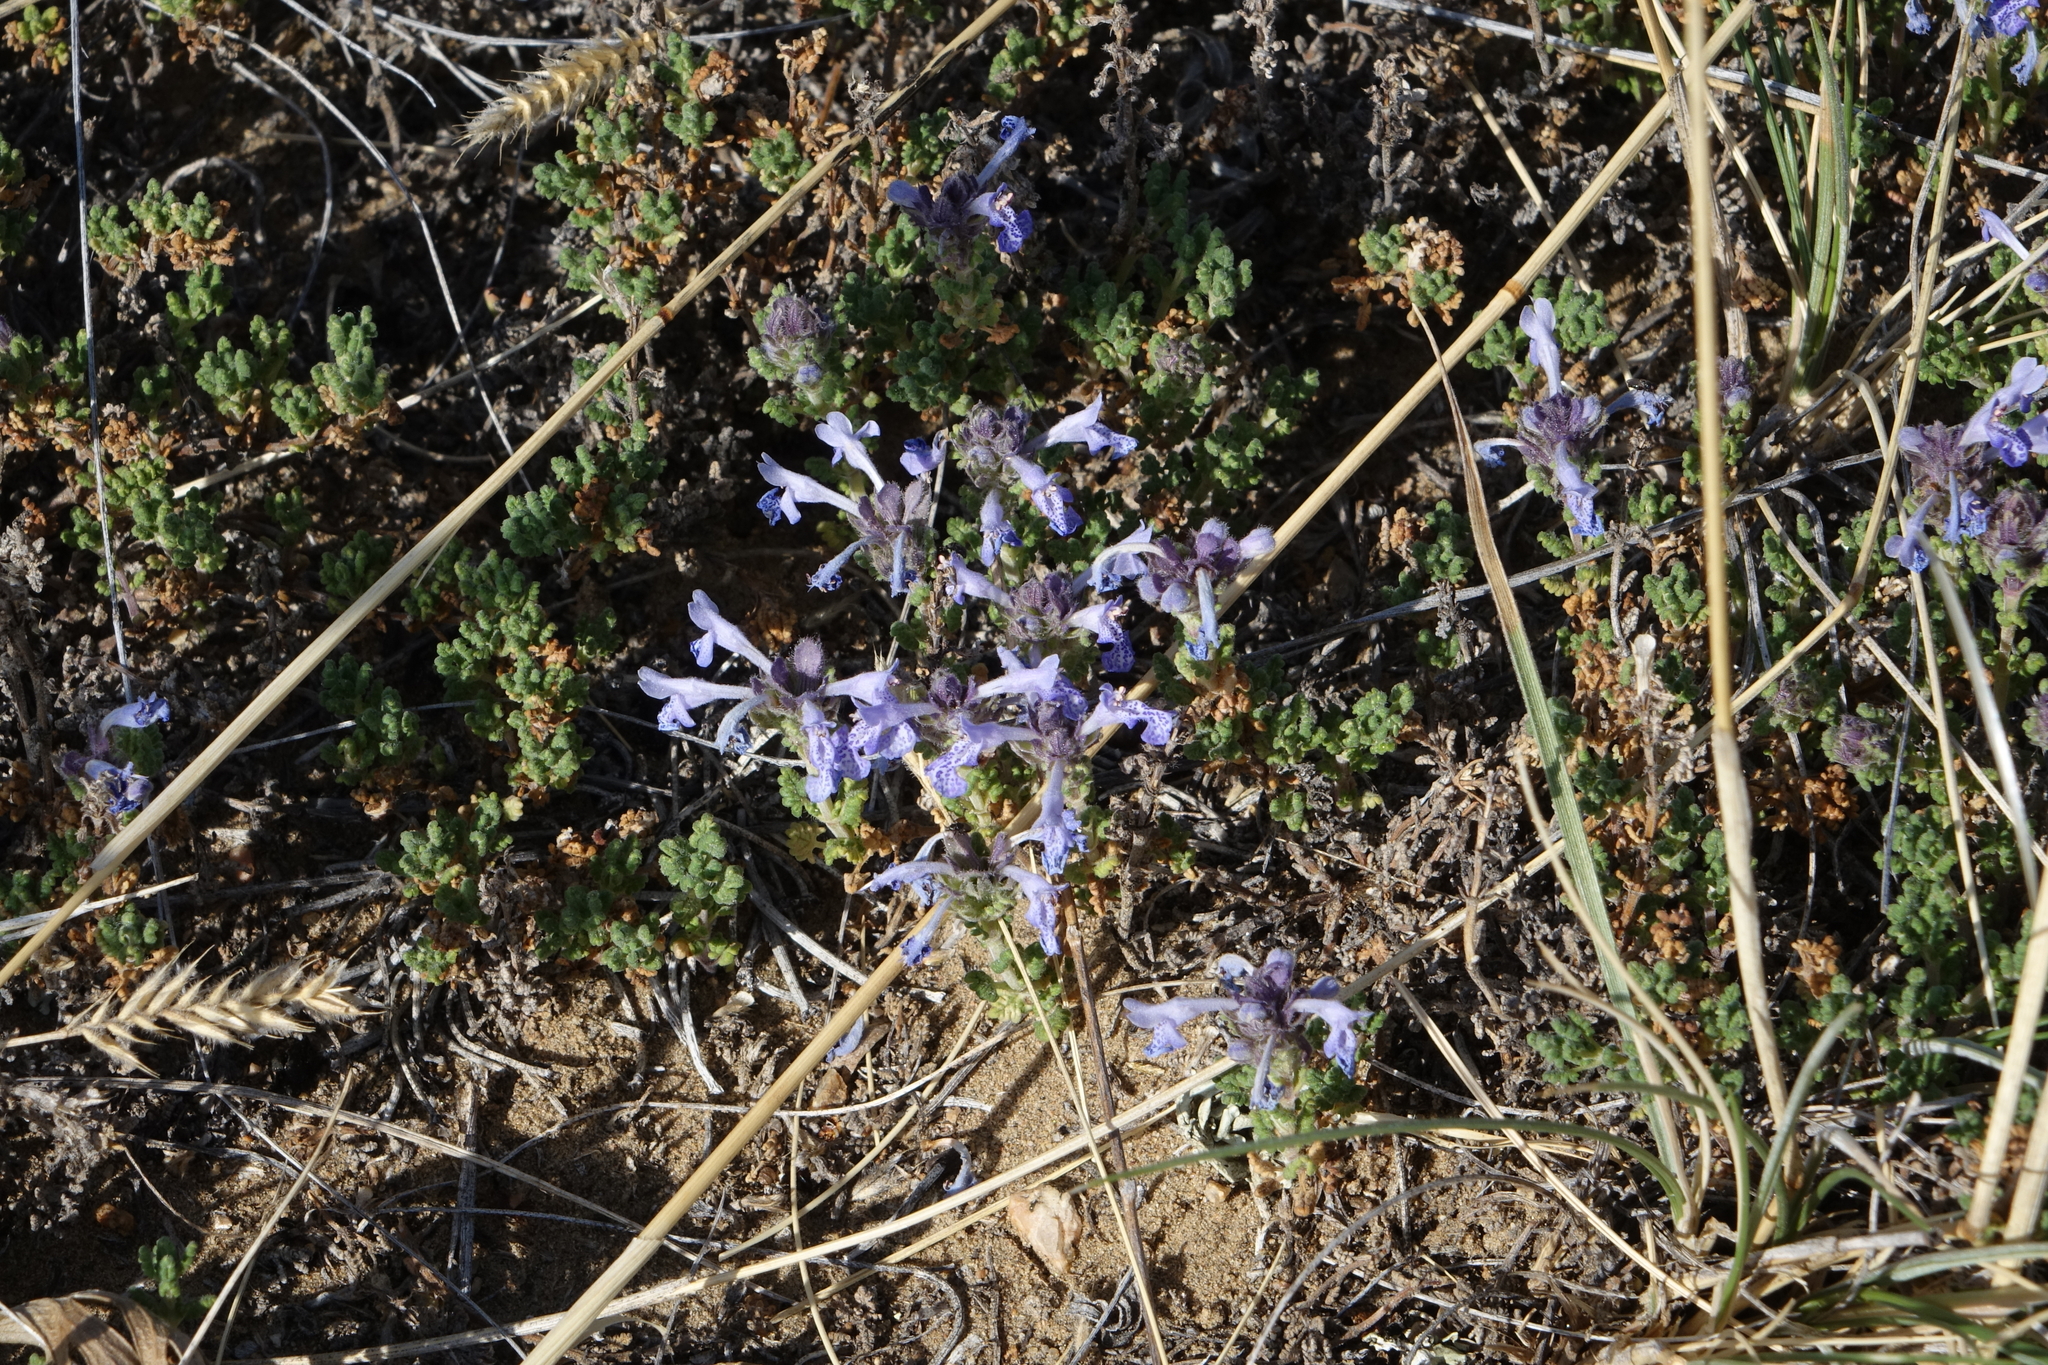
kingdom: Plantae
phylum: Tracheophyta
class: Magnoliopsida
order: Lamiales
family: Lamiaceae
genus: Dracocephalum
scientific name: Dracocephalum origanoides
